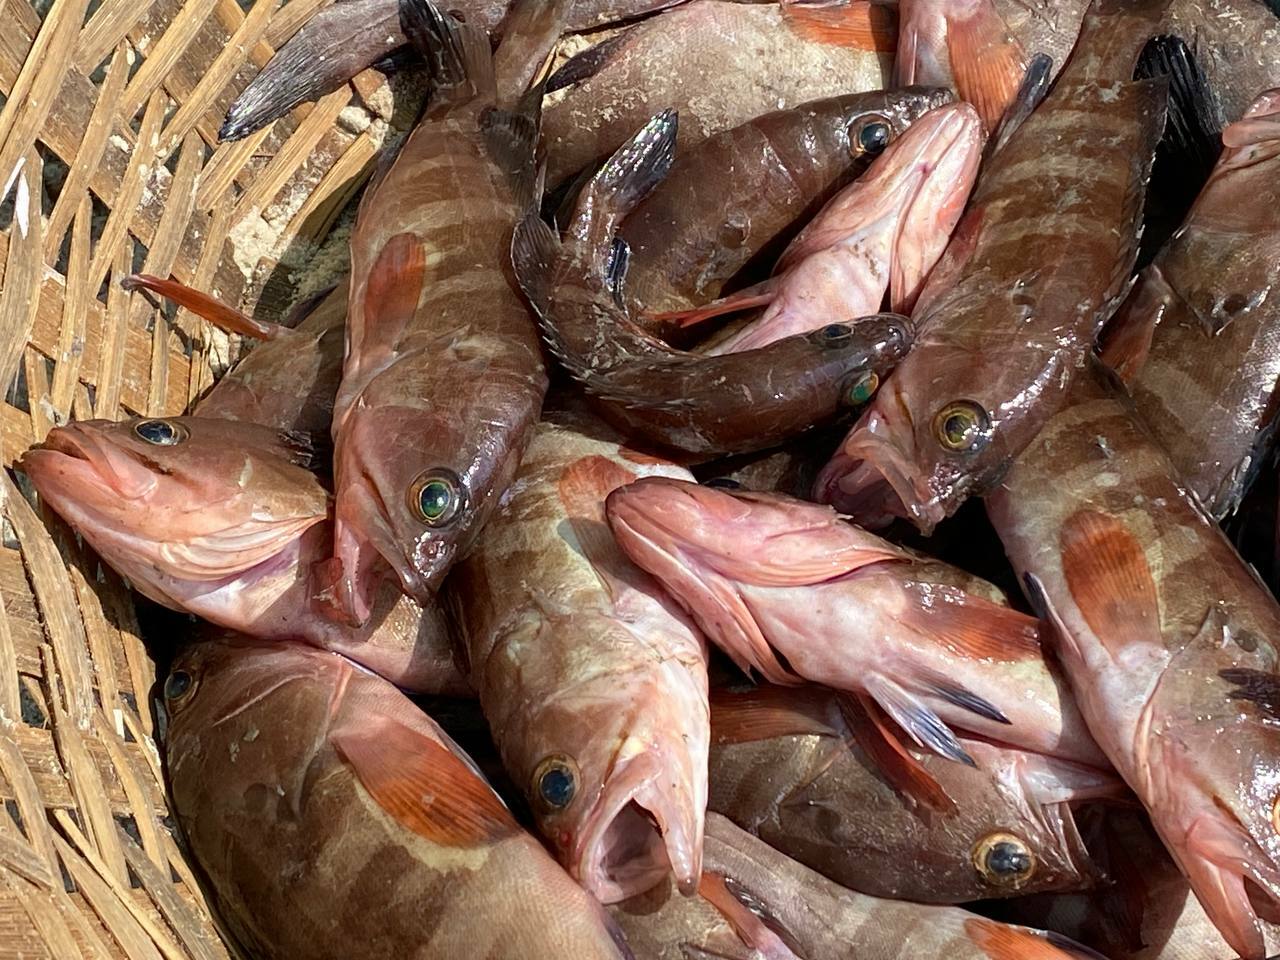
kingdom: Animalia
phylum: Chordata
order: Perciformes
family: Serranidae
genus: Epinephelus
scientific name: Epinephelus diacanthus
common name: Spinycheek grouper
